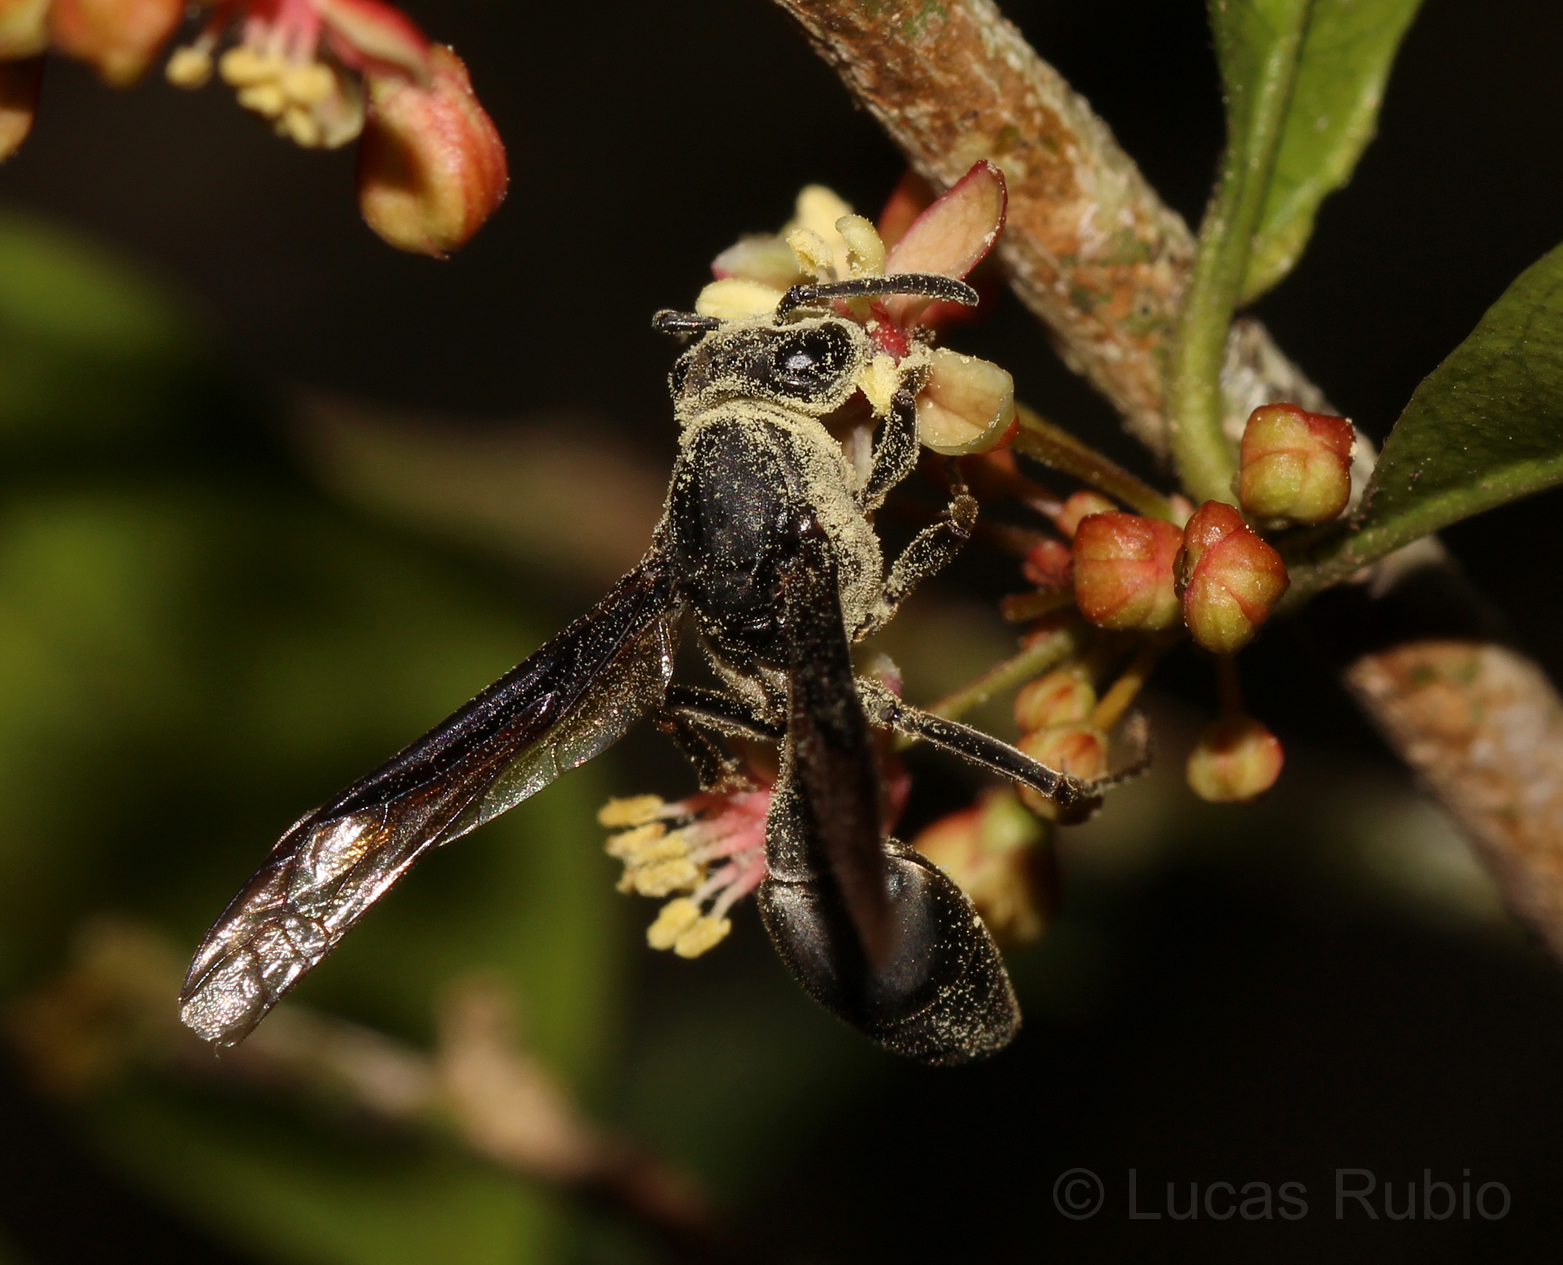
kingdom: Animalia
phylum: Arthropoda
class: Insecta
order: Hymenoptera
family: Eumenidae
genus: Polybia
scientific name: Polybia ignobilis
